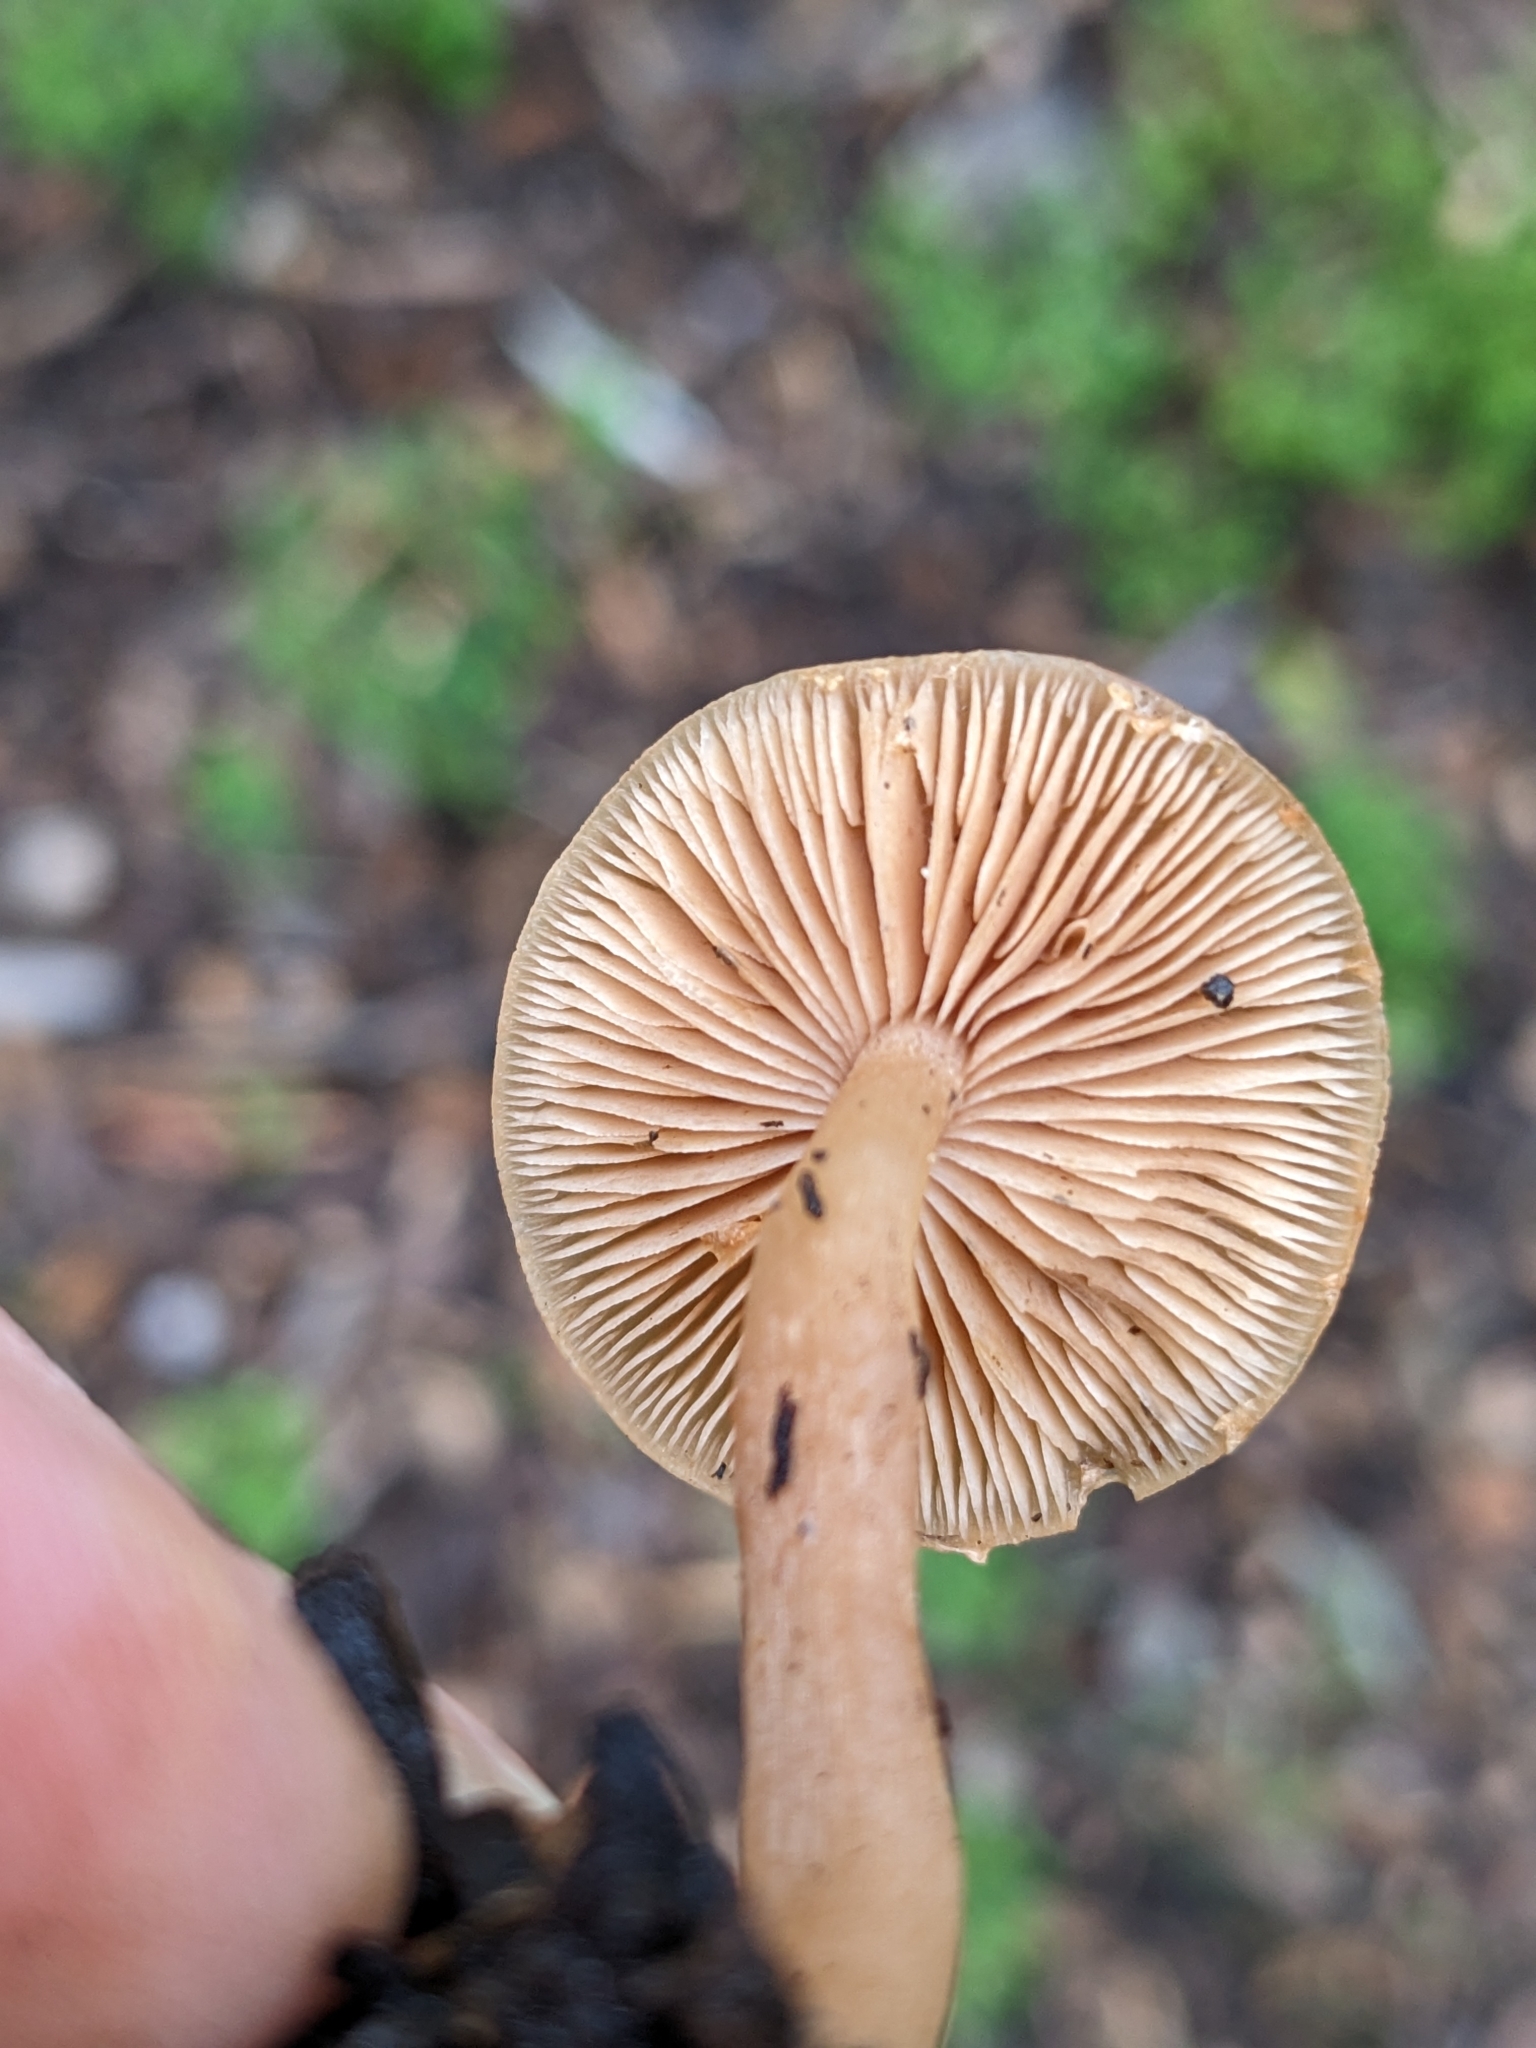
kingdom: Fungi
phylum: Basidiomycota
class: Agaricomycetes
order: Agaricales
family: Tubariaceae
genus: Tubaria
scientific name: Tubaria furfuracea
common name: Scurfy twiglet
